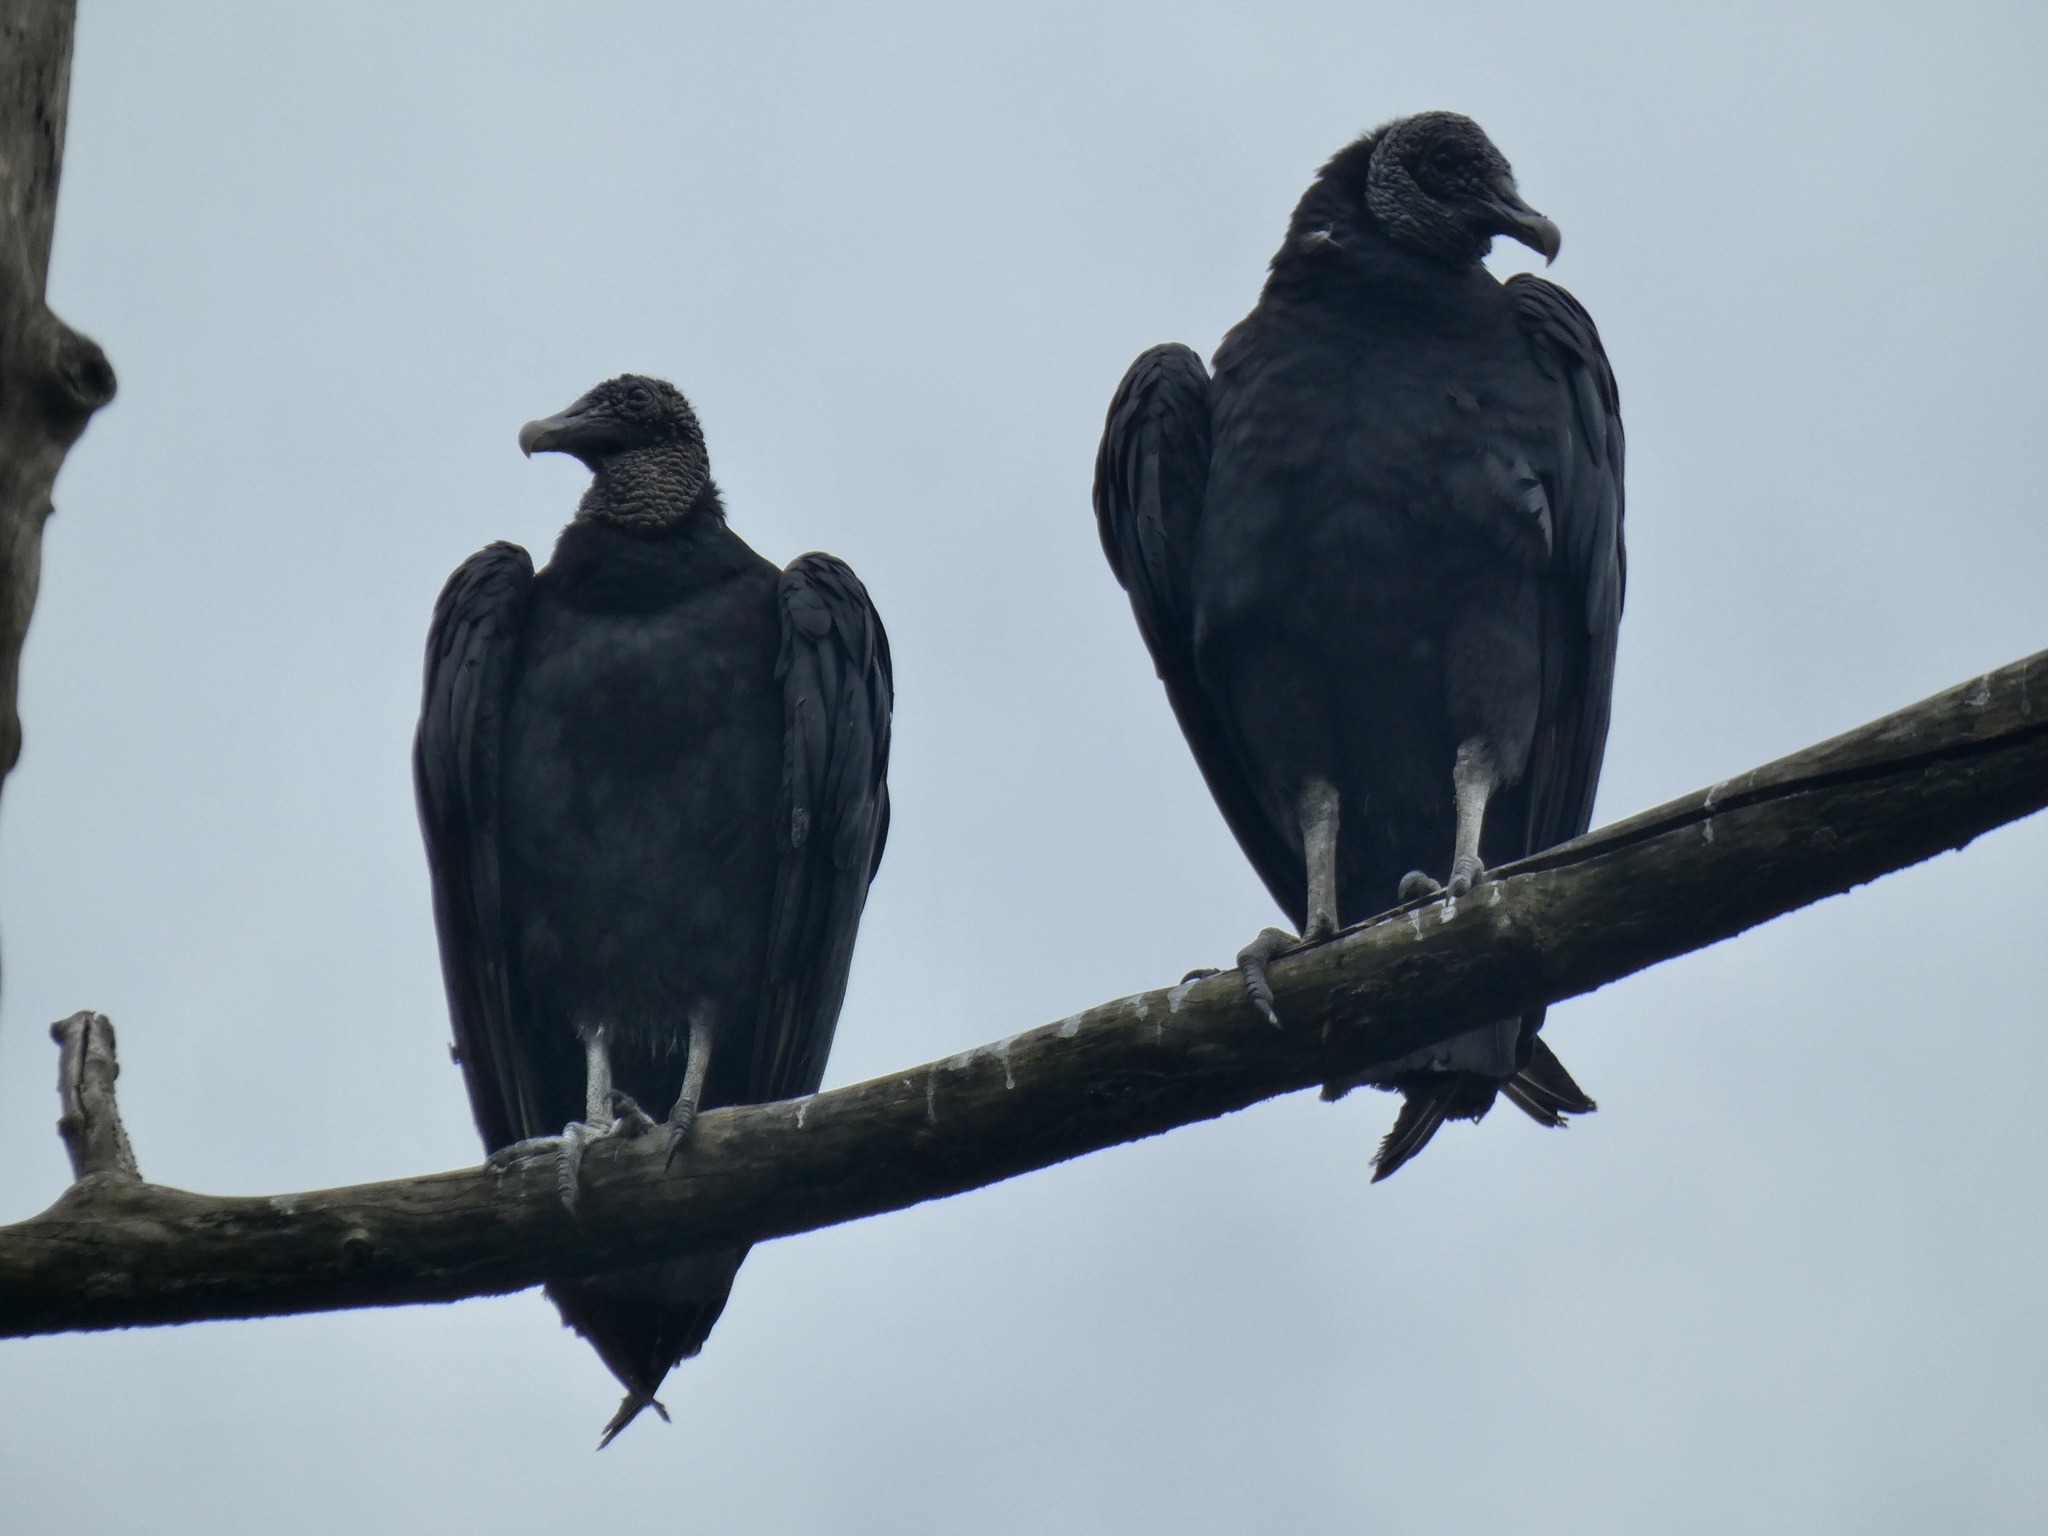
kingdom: Animalia
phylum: Chordata
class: Aves
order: Accipitriformes
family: Cathartidae
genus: Coragyps
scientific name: Coragyps atratus
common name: Black vulture
